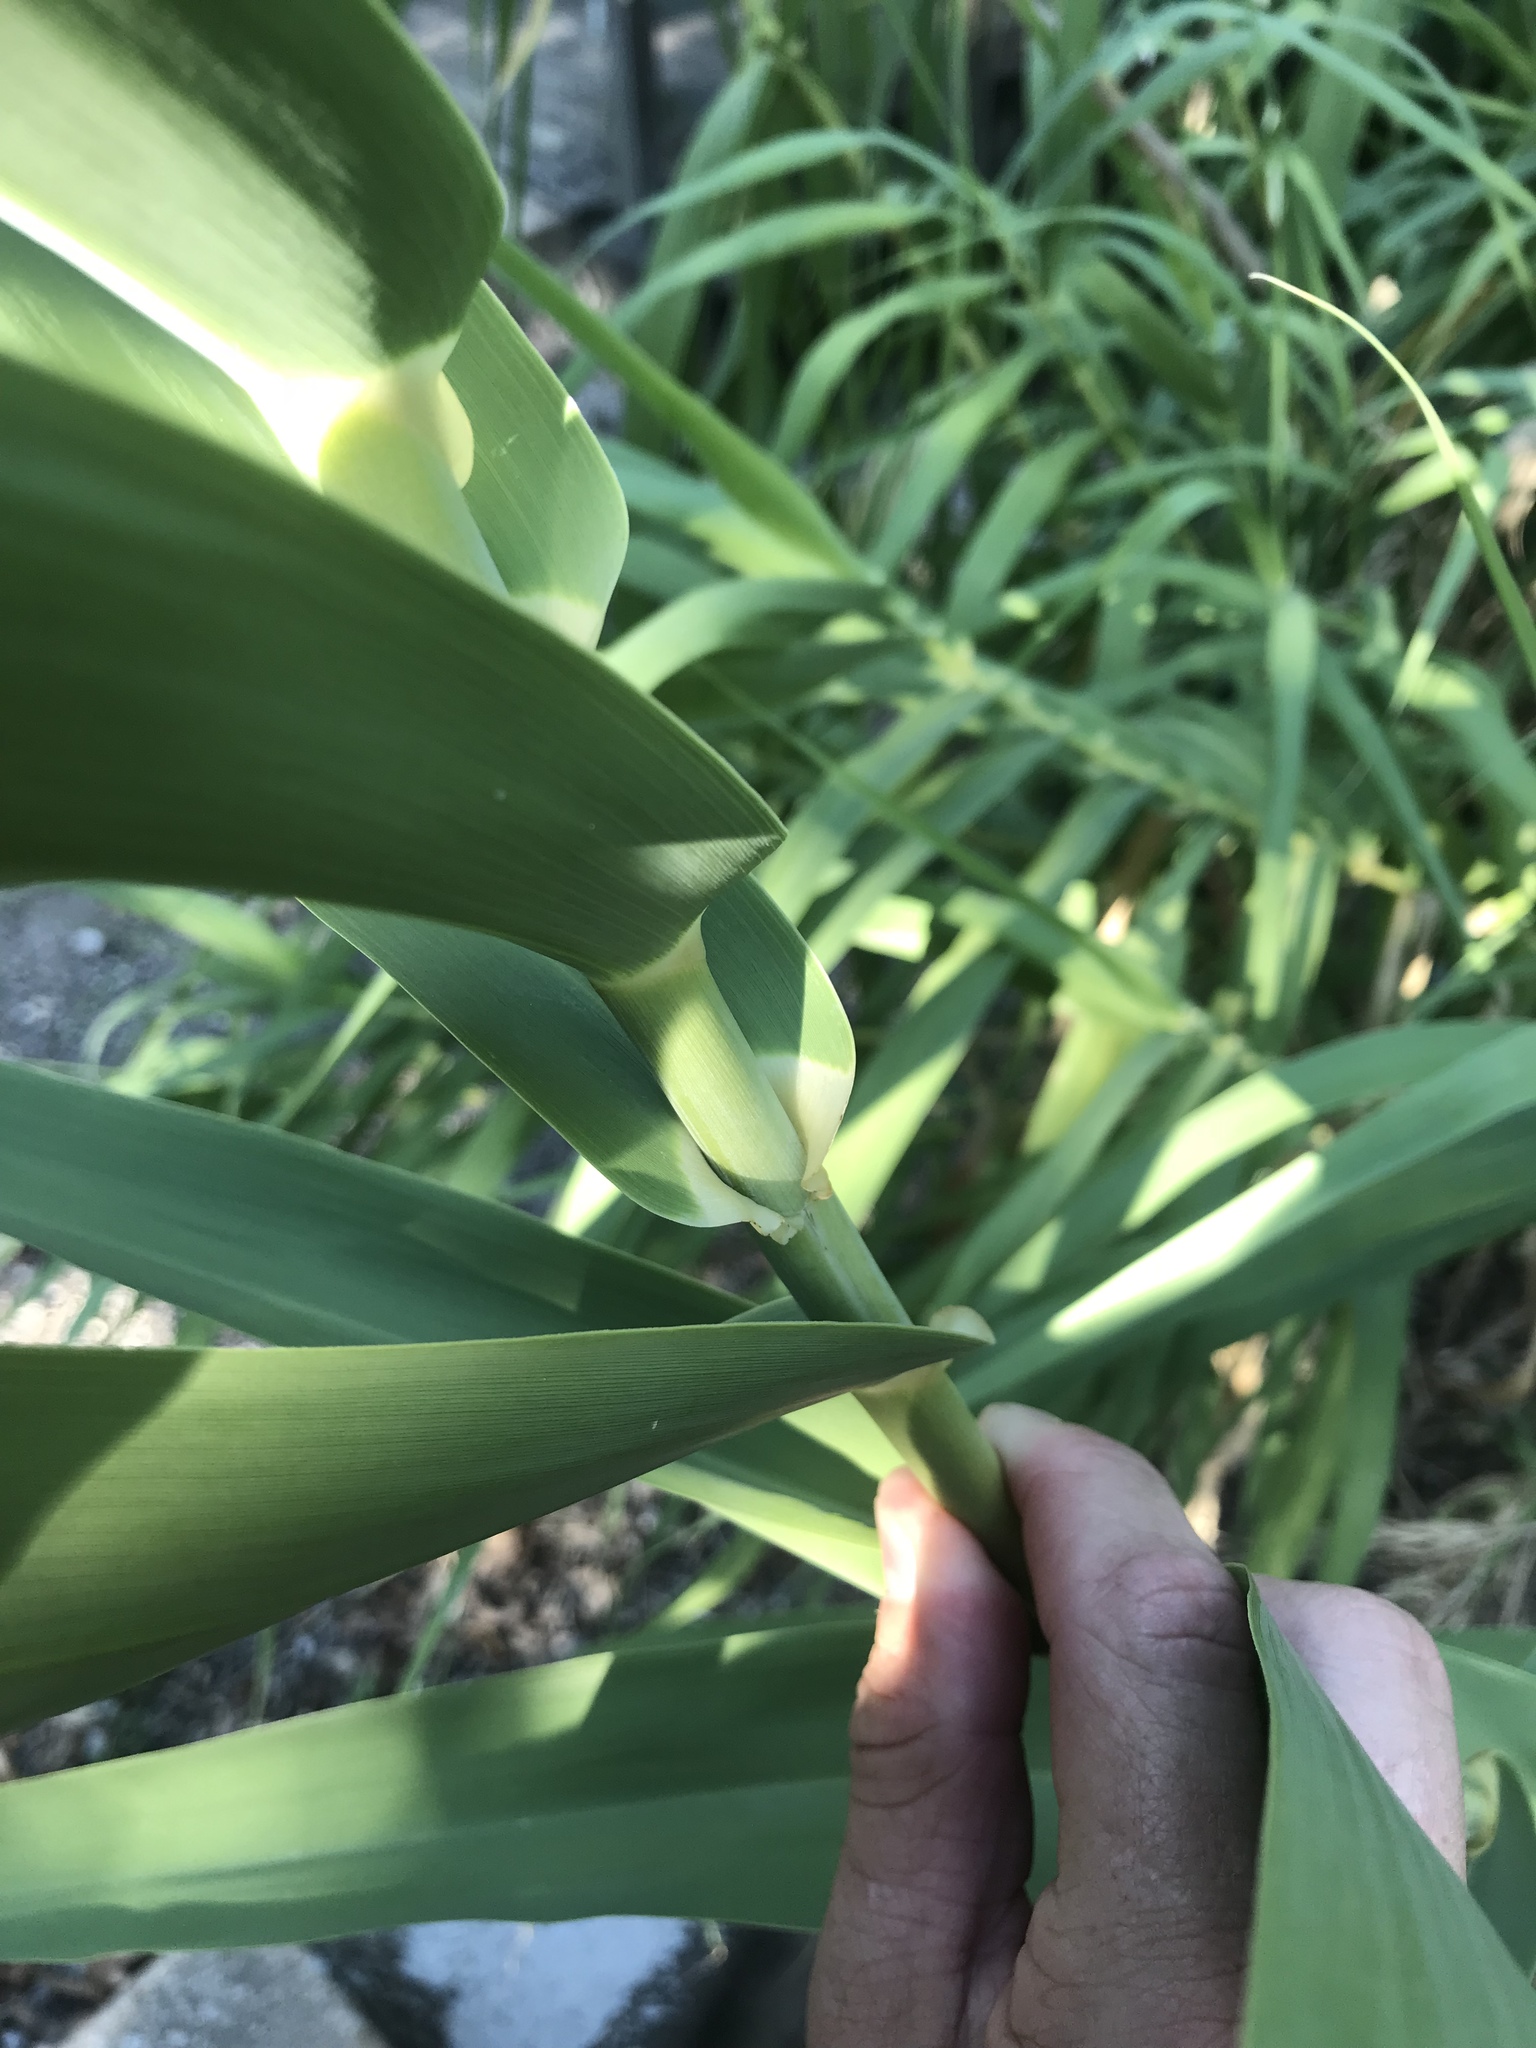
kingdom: Plantae
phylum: Tracheophyta
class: Liliopsida
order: Poales
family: Poaceae
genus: Arundo
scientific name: Arundo donax
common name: Giant reed
